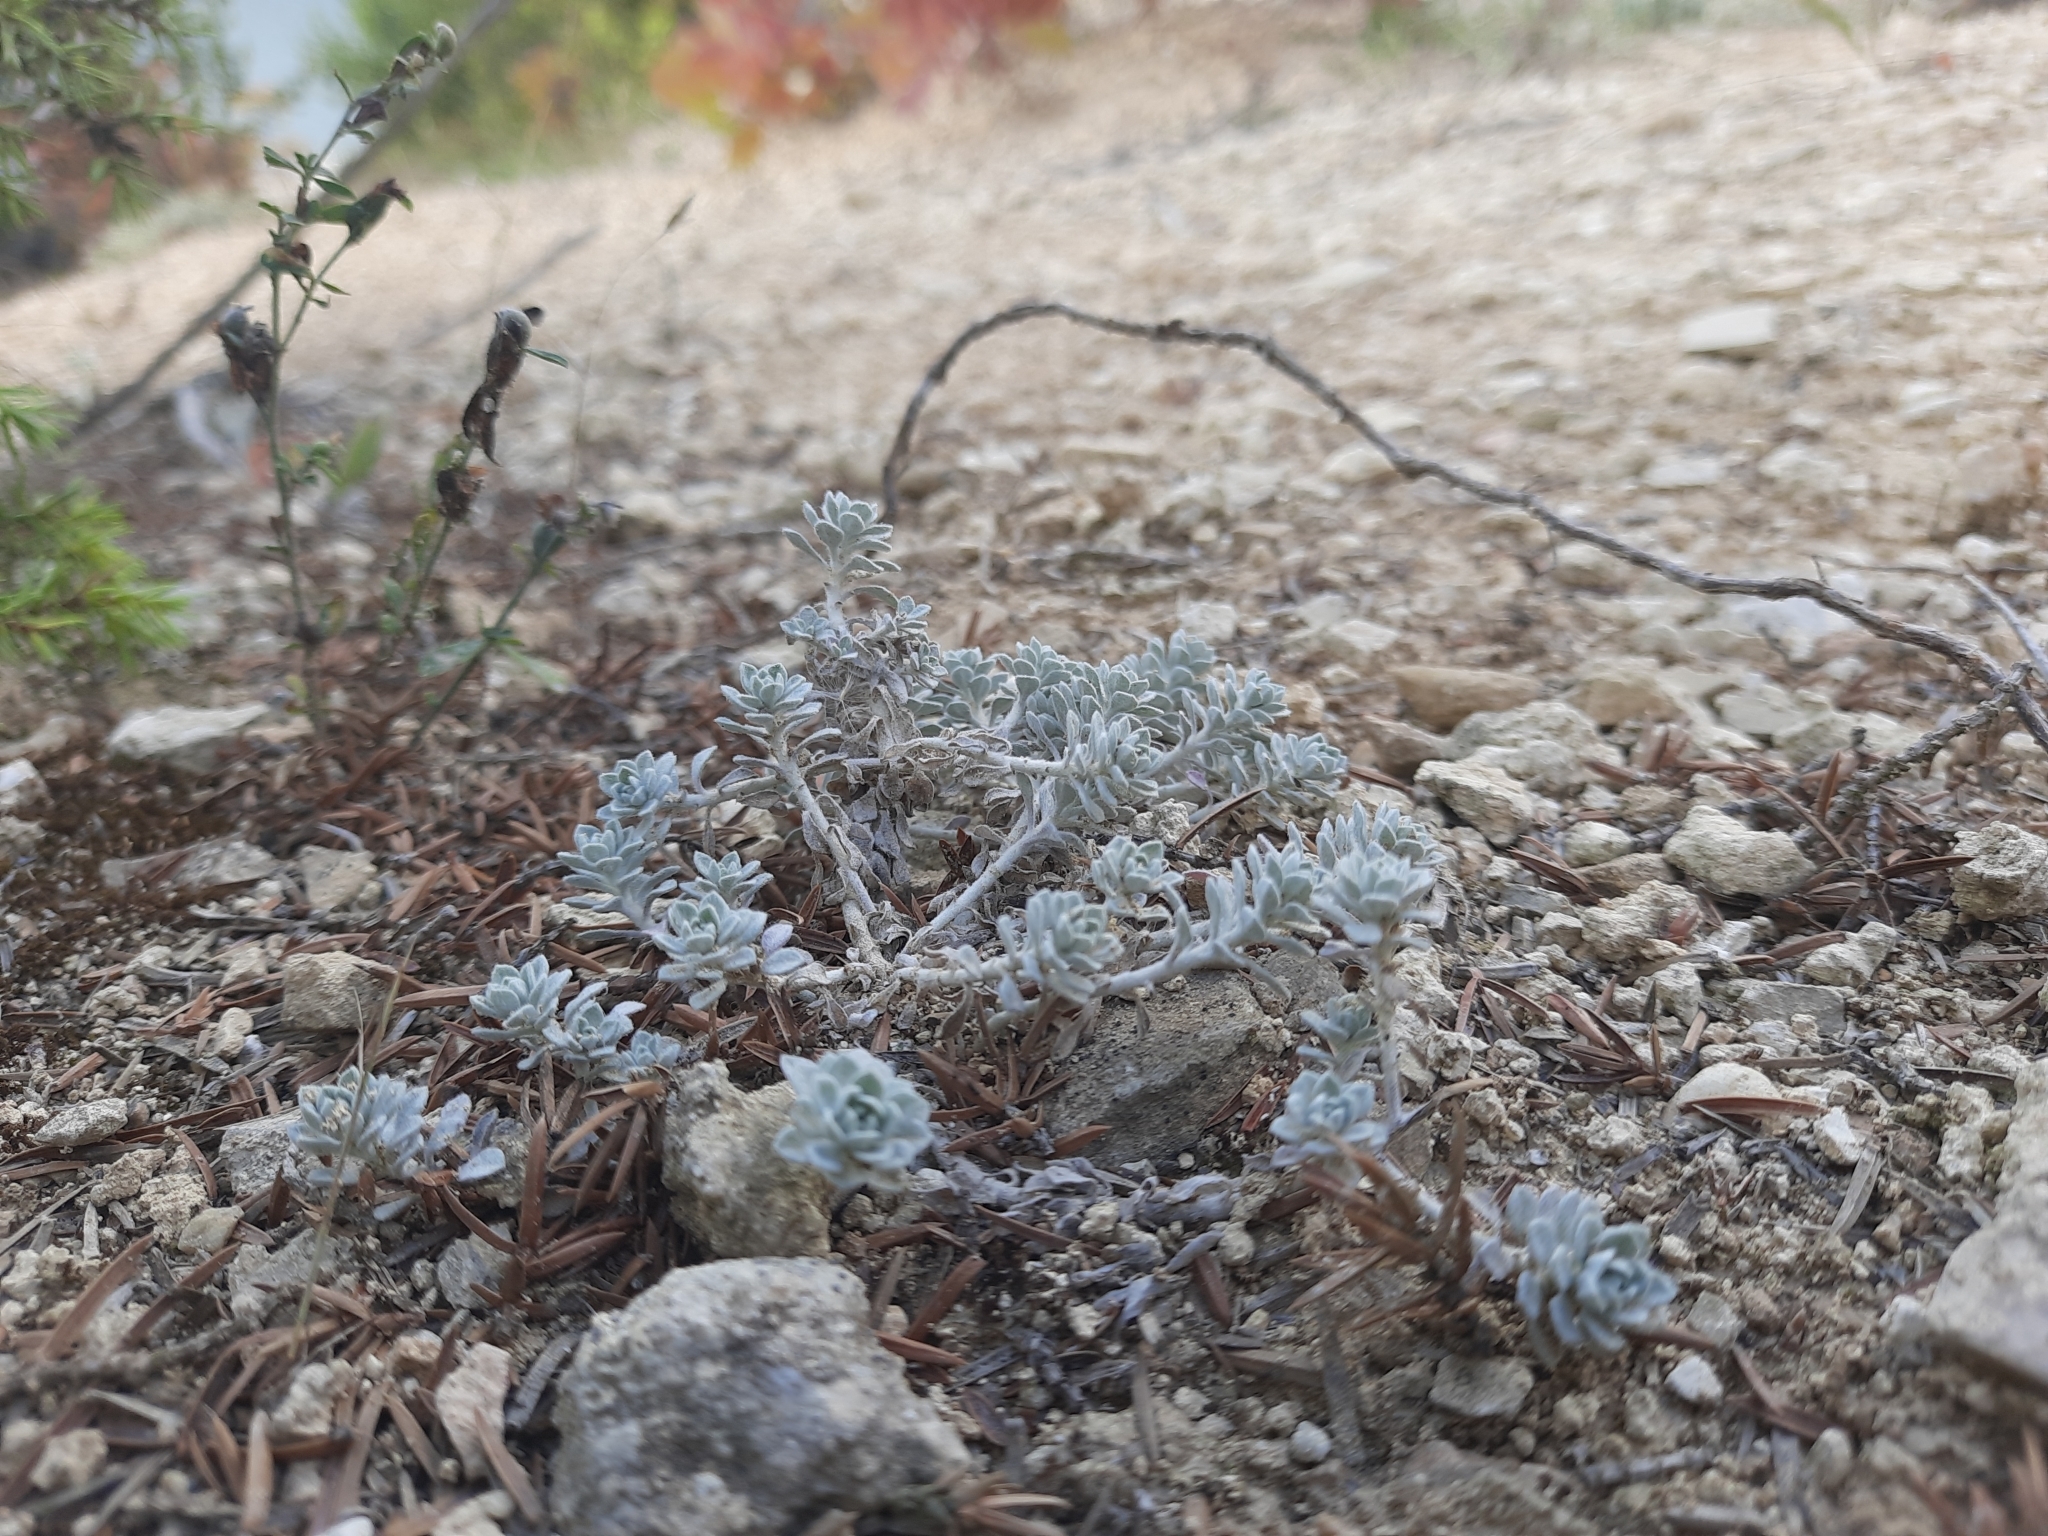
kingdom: Plantae
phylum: Tracheophyta
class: Magnoliopsida
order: Brassicales
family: Brassicaceae
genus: Odontarrhena
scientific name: Odontarrhena obtusifolia
